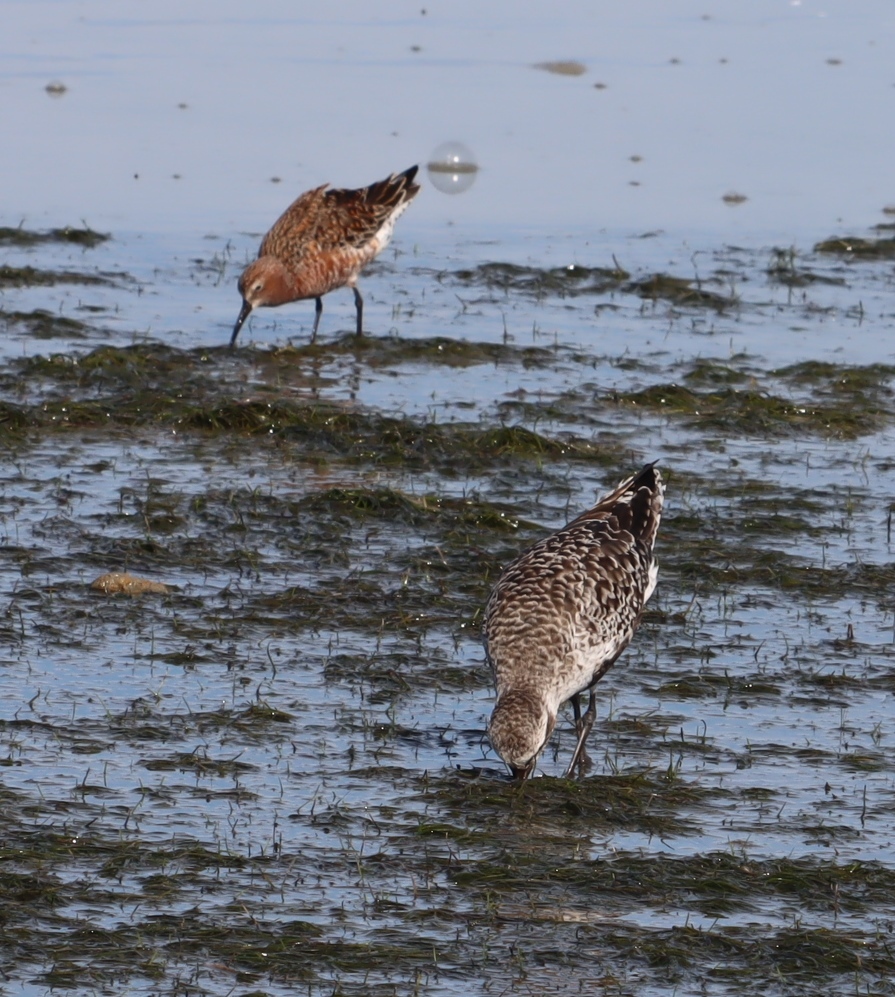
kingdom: Animalia
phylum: Chordata
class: Aves
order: Charadriiformes
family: Scolopacidae
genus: Calidris
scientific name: Calidris ferruginea
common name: Curlew sandpiper
